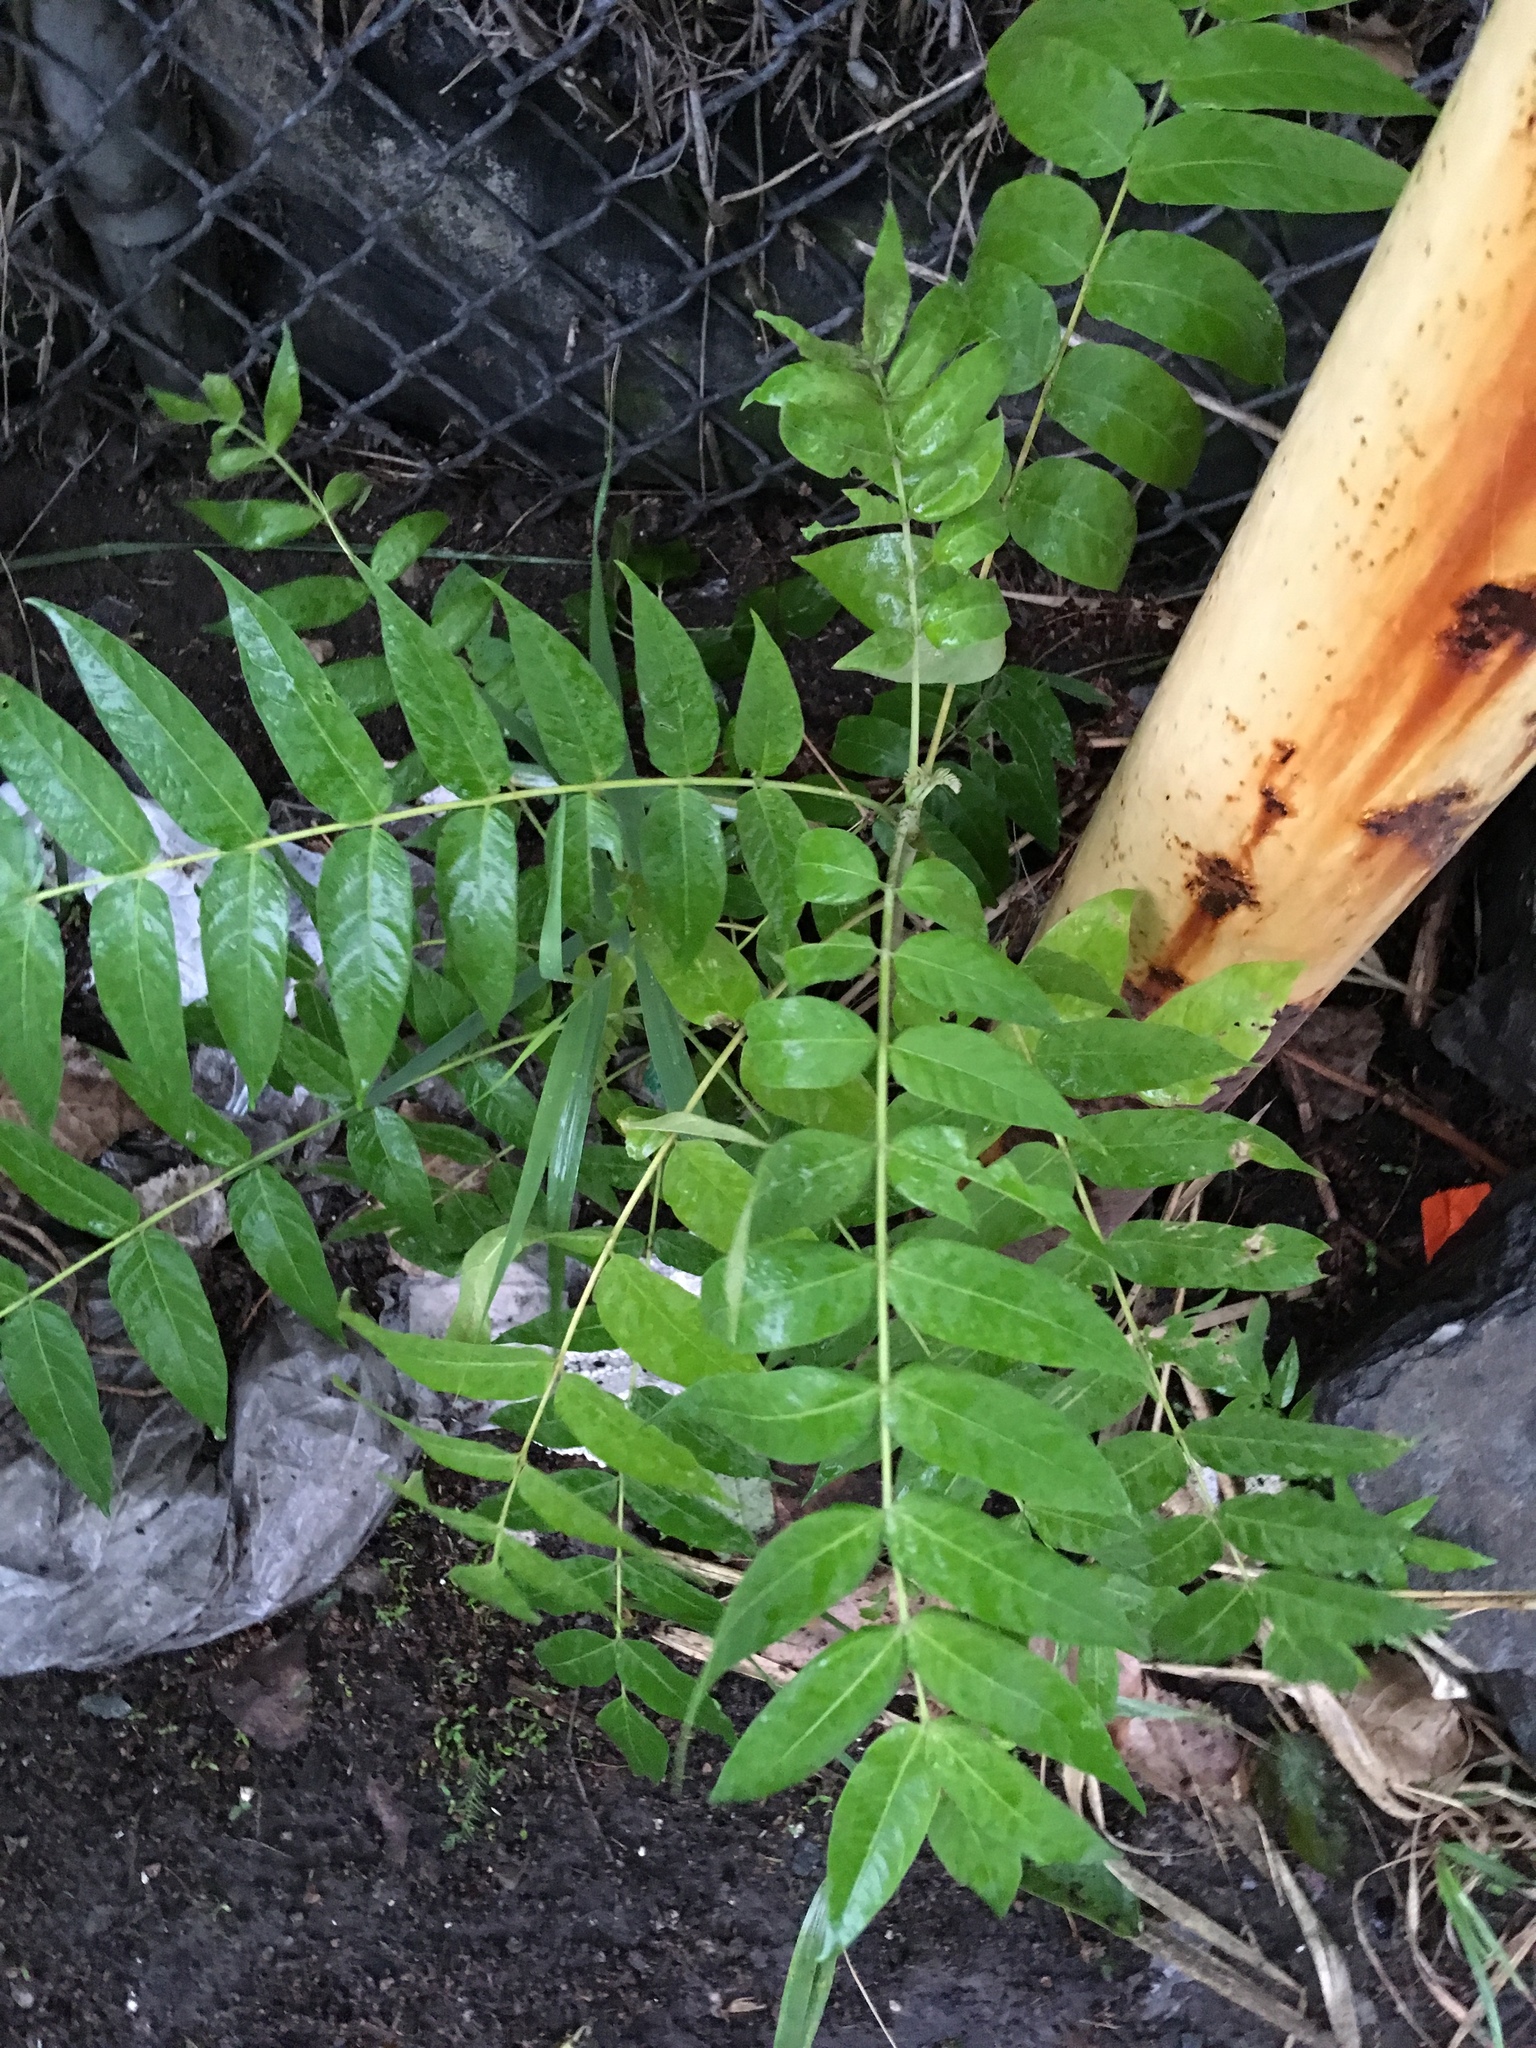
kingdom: Plantae
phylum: Tracheophyta
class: Magnoliopsida
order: Sapindales
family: Simaroubaceae
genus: Ailanthus
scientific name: Ailanthus altissima
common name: Tree-of-heaven
